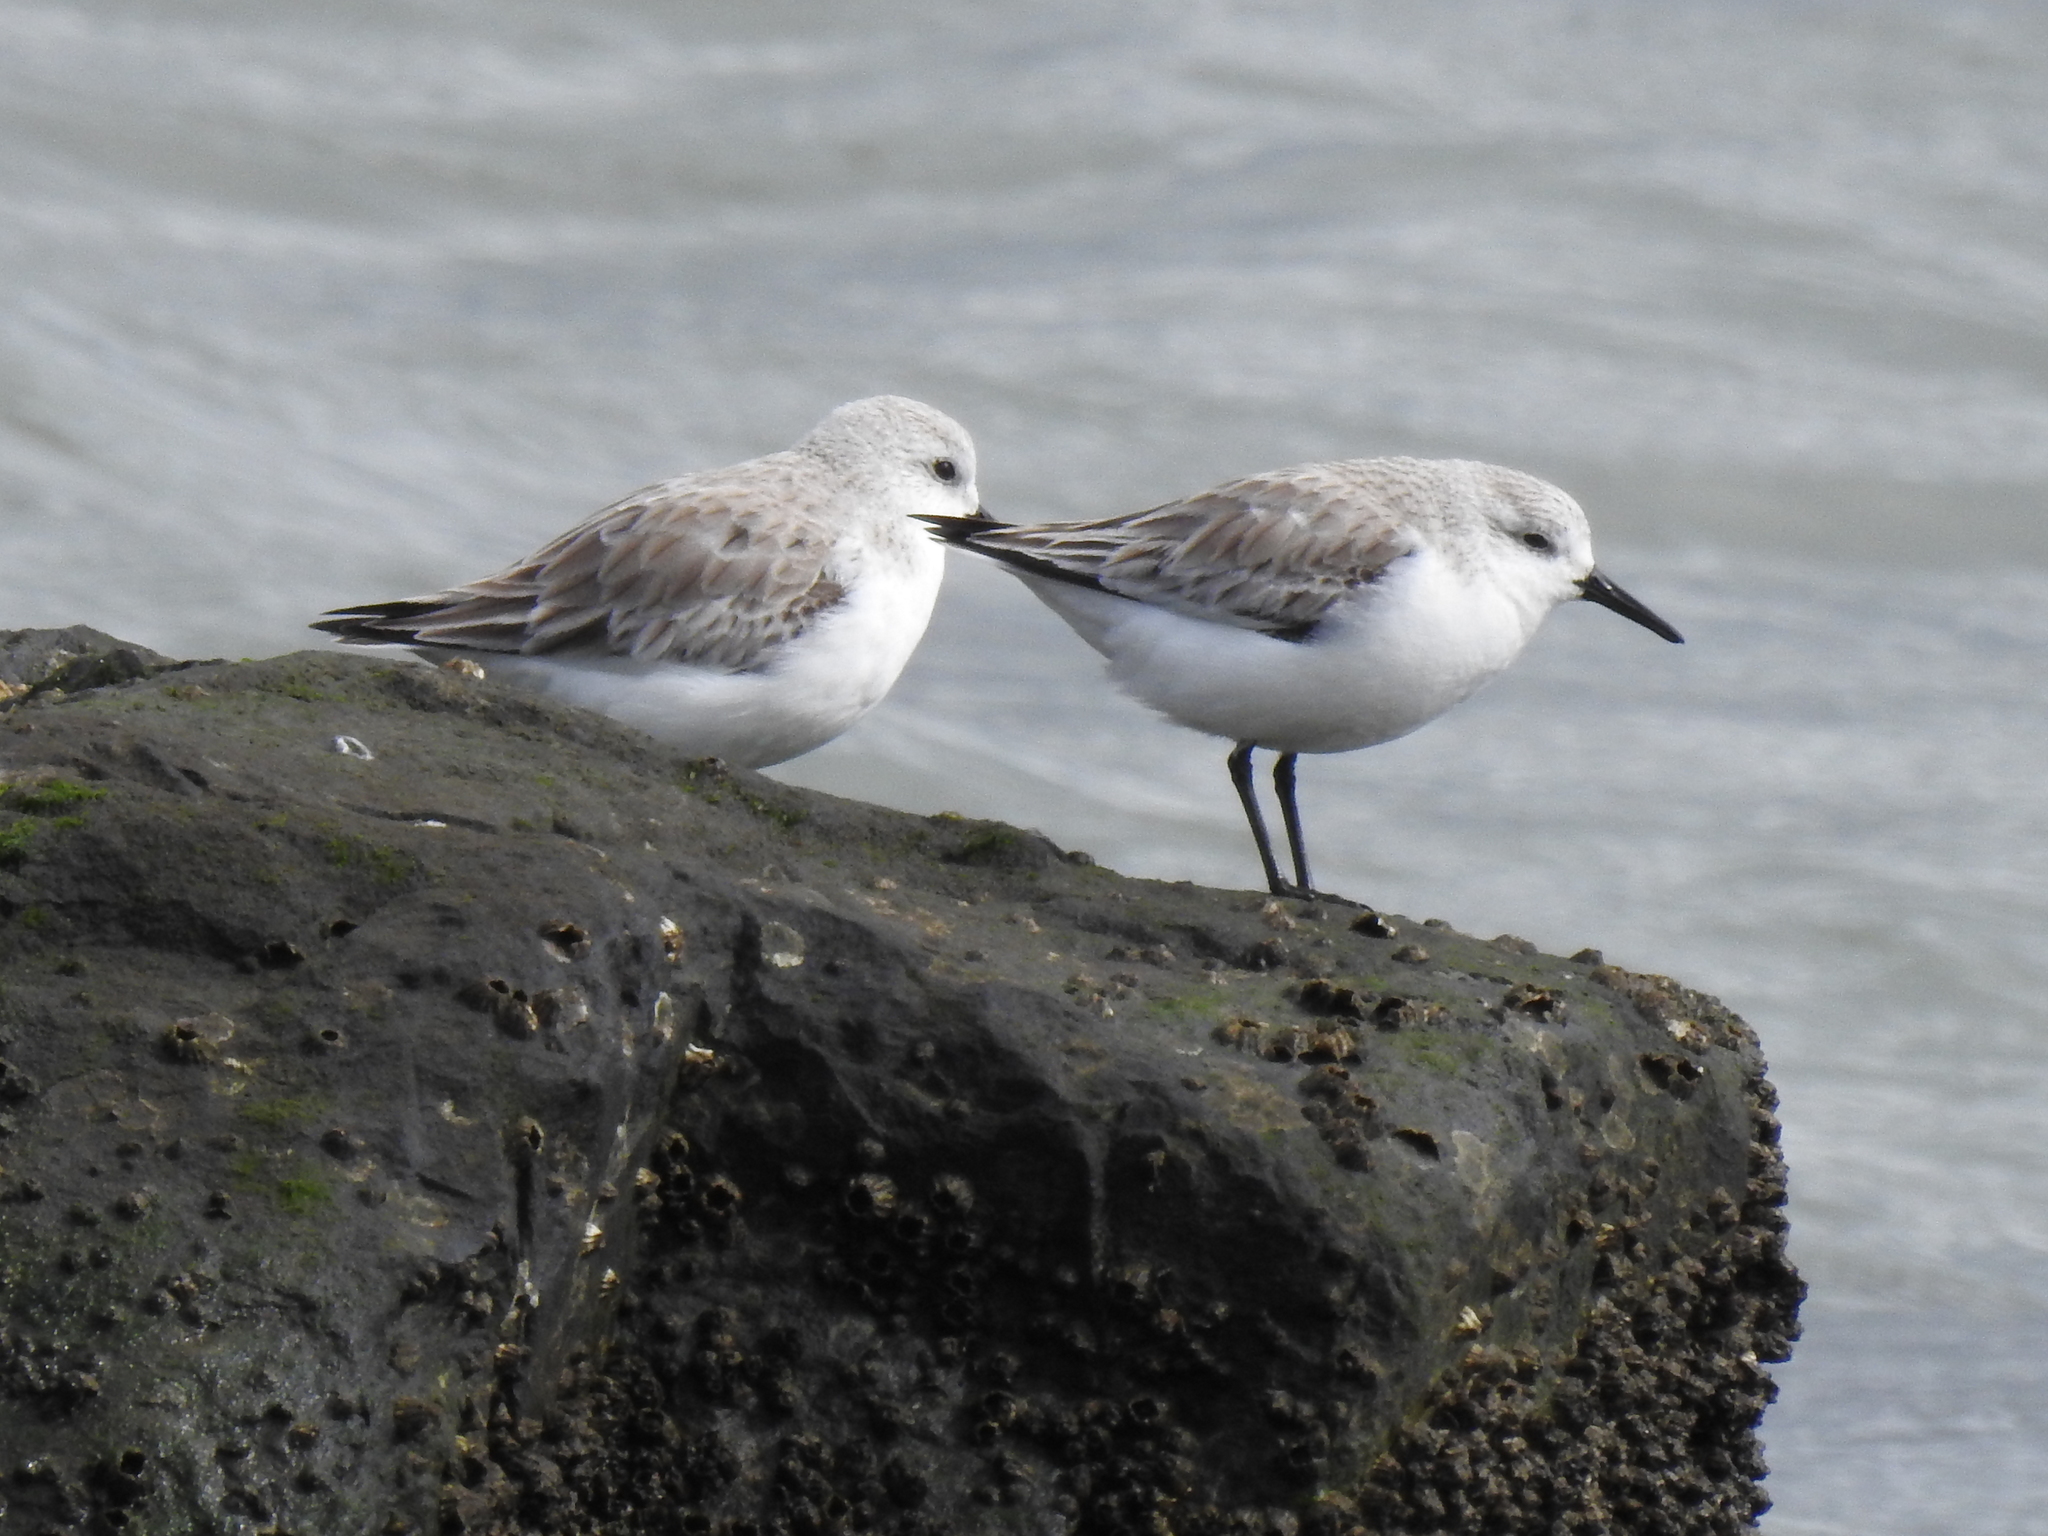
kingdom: Animalia
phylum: Chordata
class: Aves
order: Charadriiformes
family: Scolopacidae
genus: Calidris
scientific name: Calidris alba
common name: Sanderling
